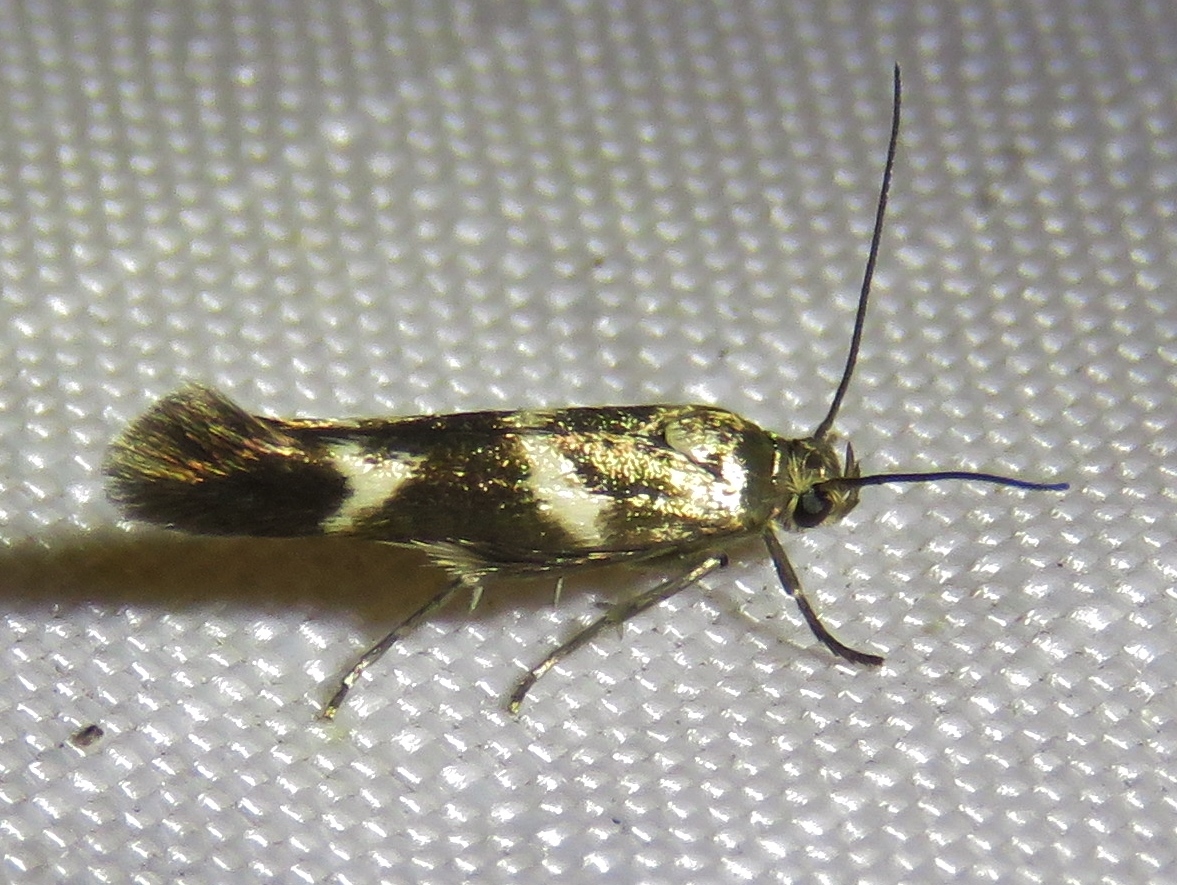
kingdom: Animalia
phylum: Arthropoda
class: Insecta
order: Lepidoptera
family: Scythrididae
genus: Scythris
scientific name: Scythris trivinctella
